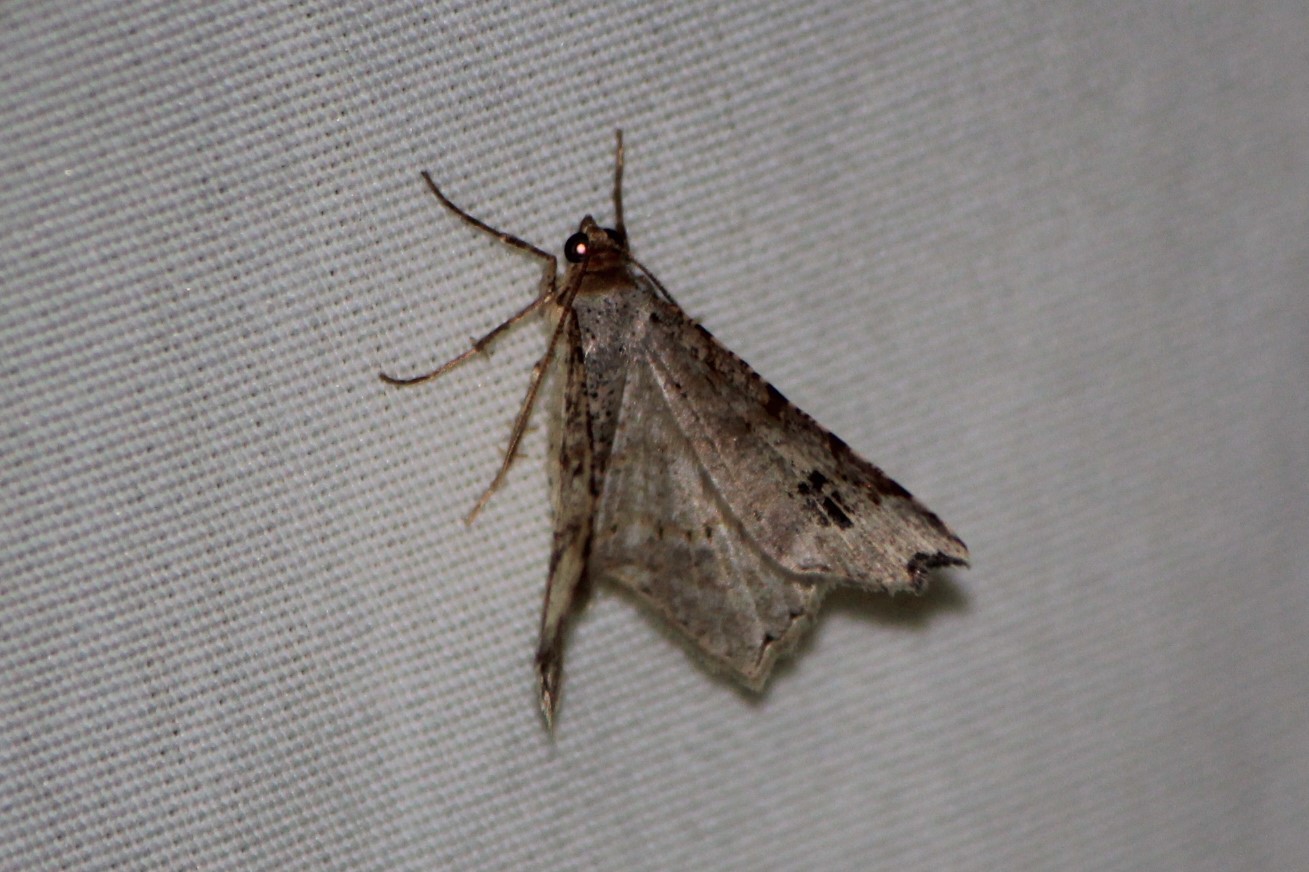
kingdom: Animalia
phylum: Arthropoda
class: Insecta
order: Lepidoptera
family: Geometridae
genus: Macaria
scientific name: Macaria aemulataria
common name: Common angle
